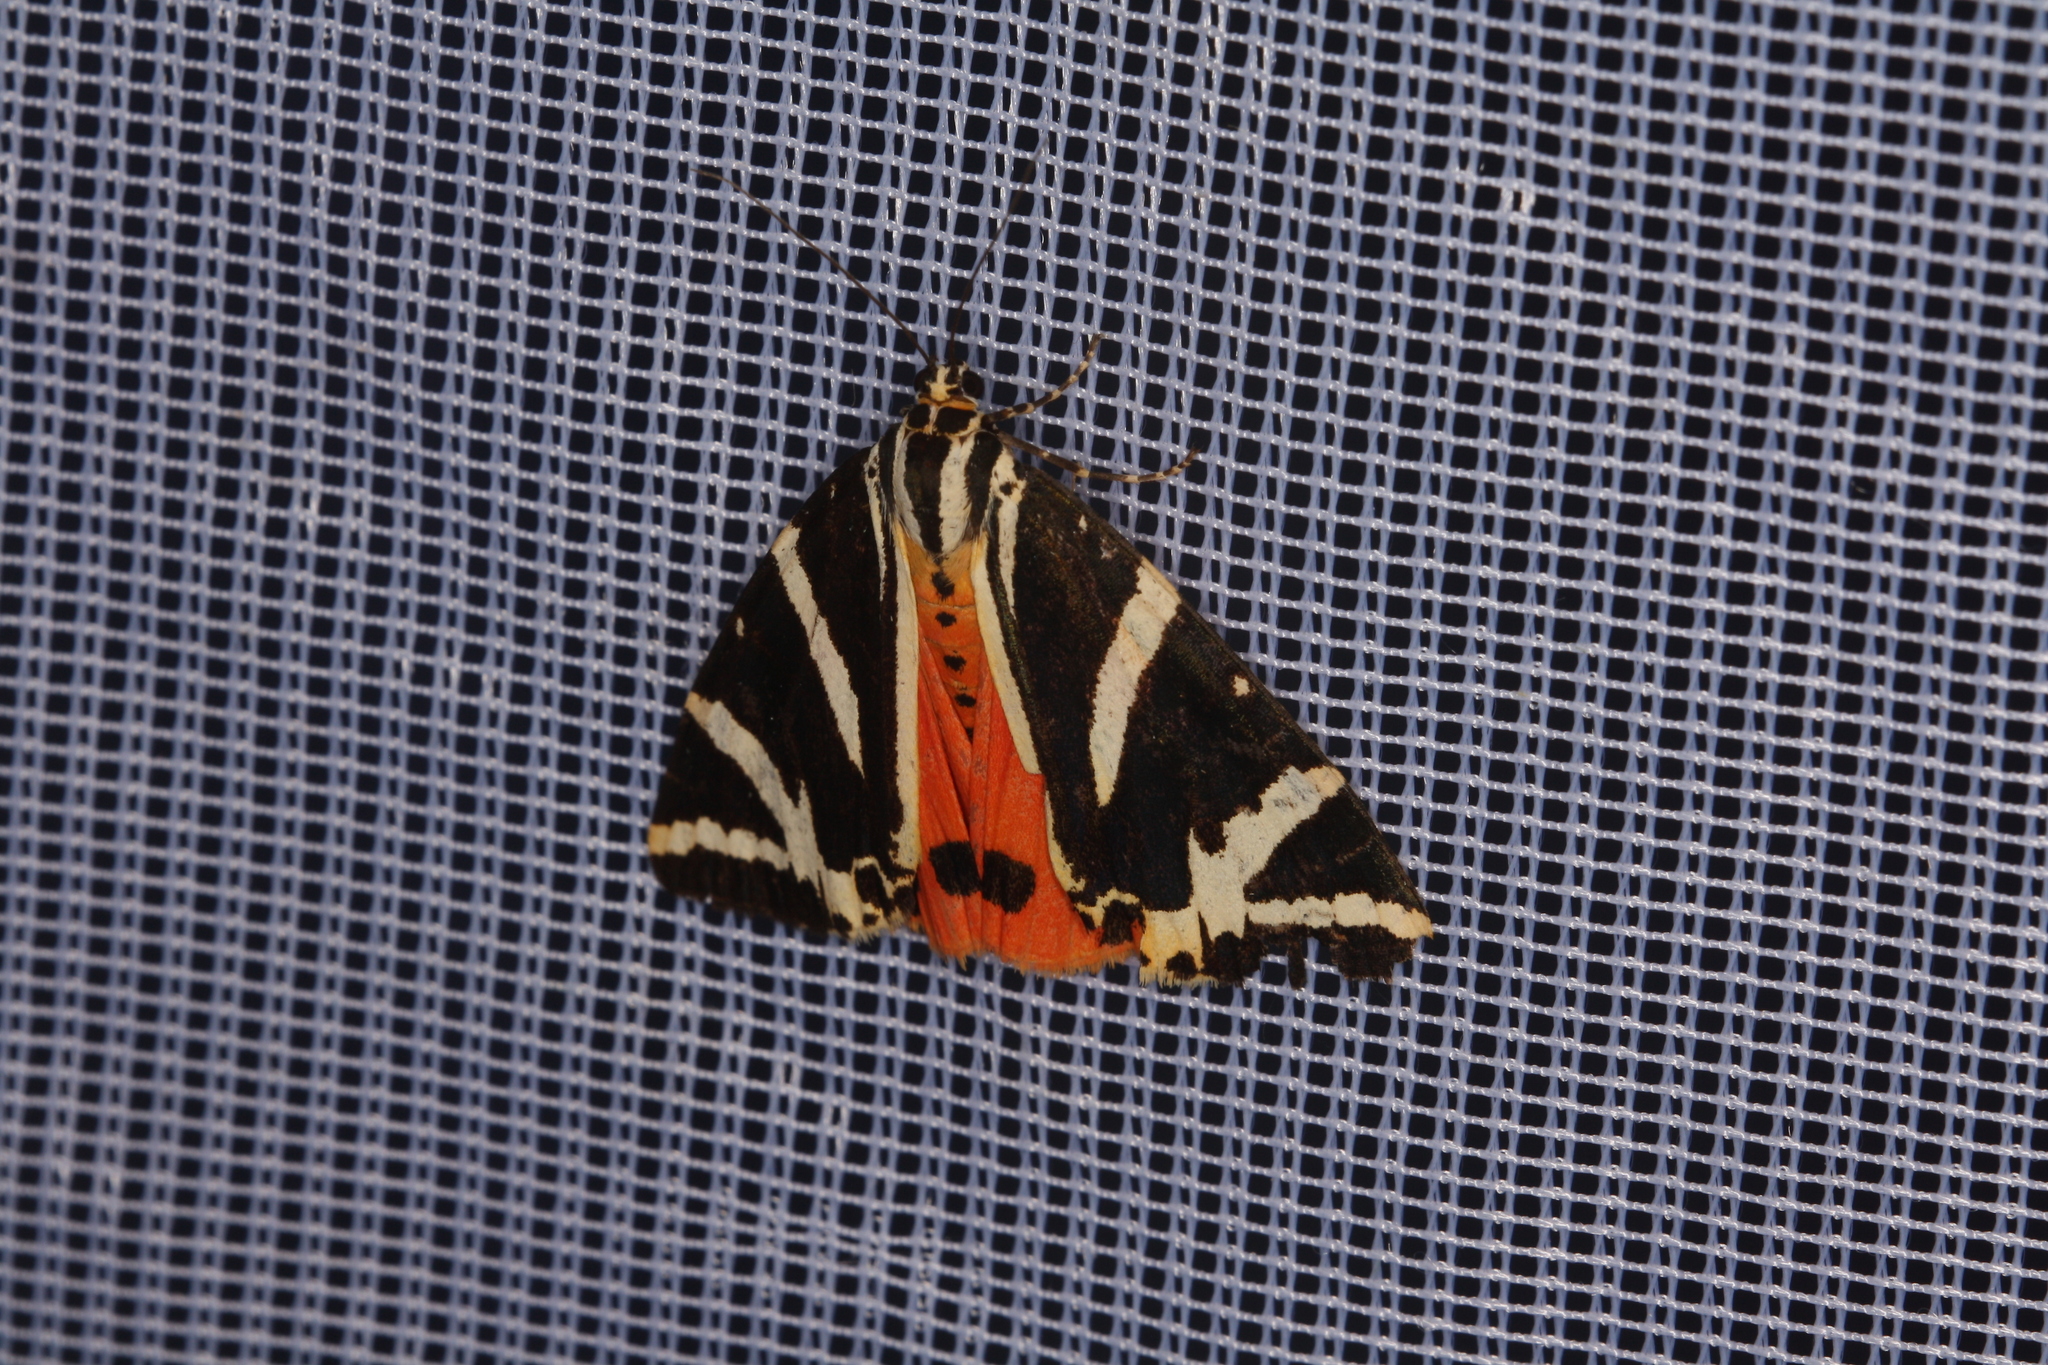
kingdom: Animalia
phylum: Arthropoda
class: Insecta
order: Lepidoptera
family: Erebidae
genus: Euplagia
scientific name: Euplagia quadripunctaria
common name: Jersey tiger
